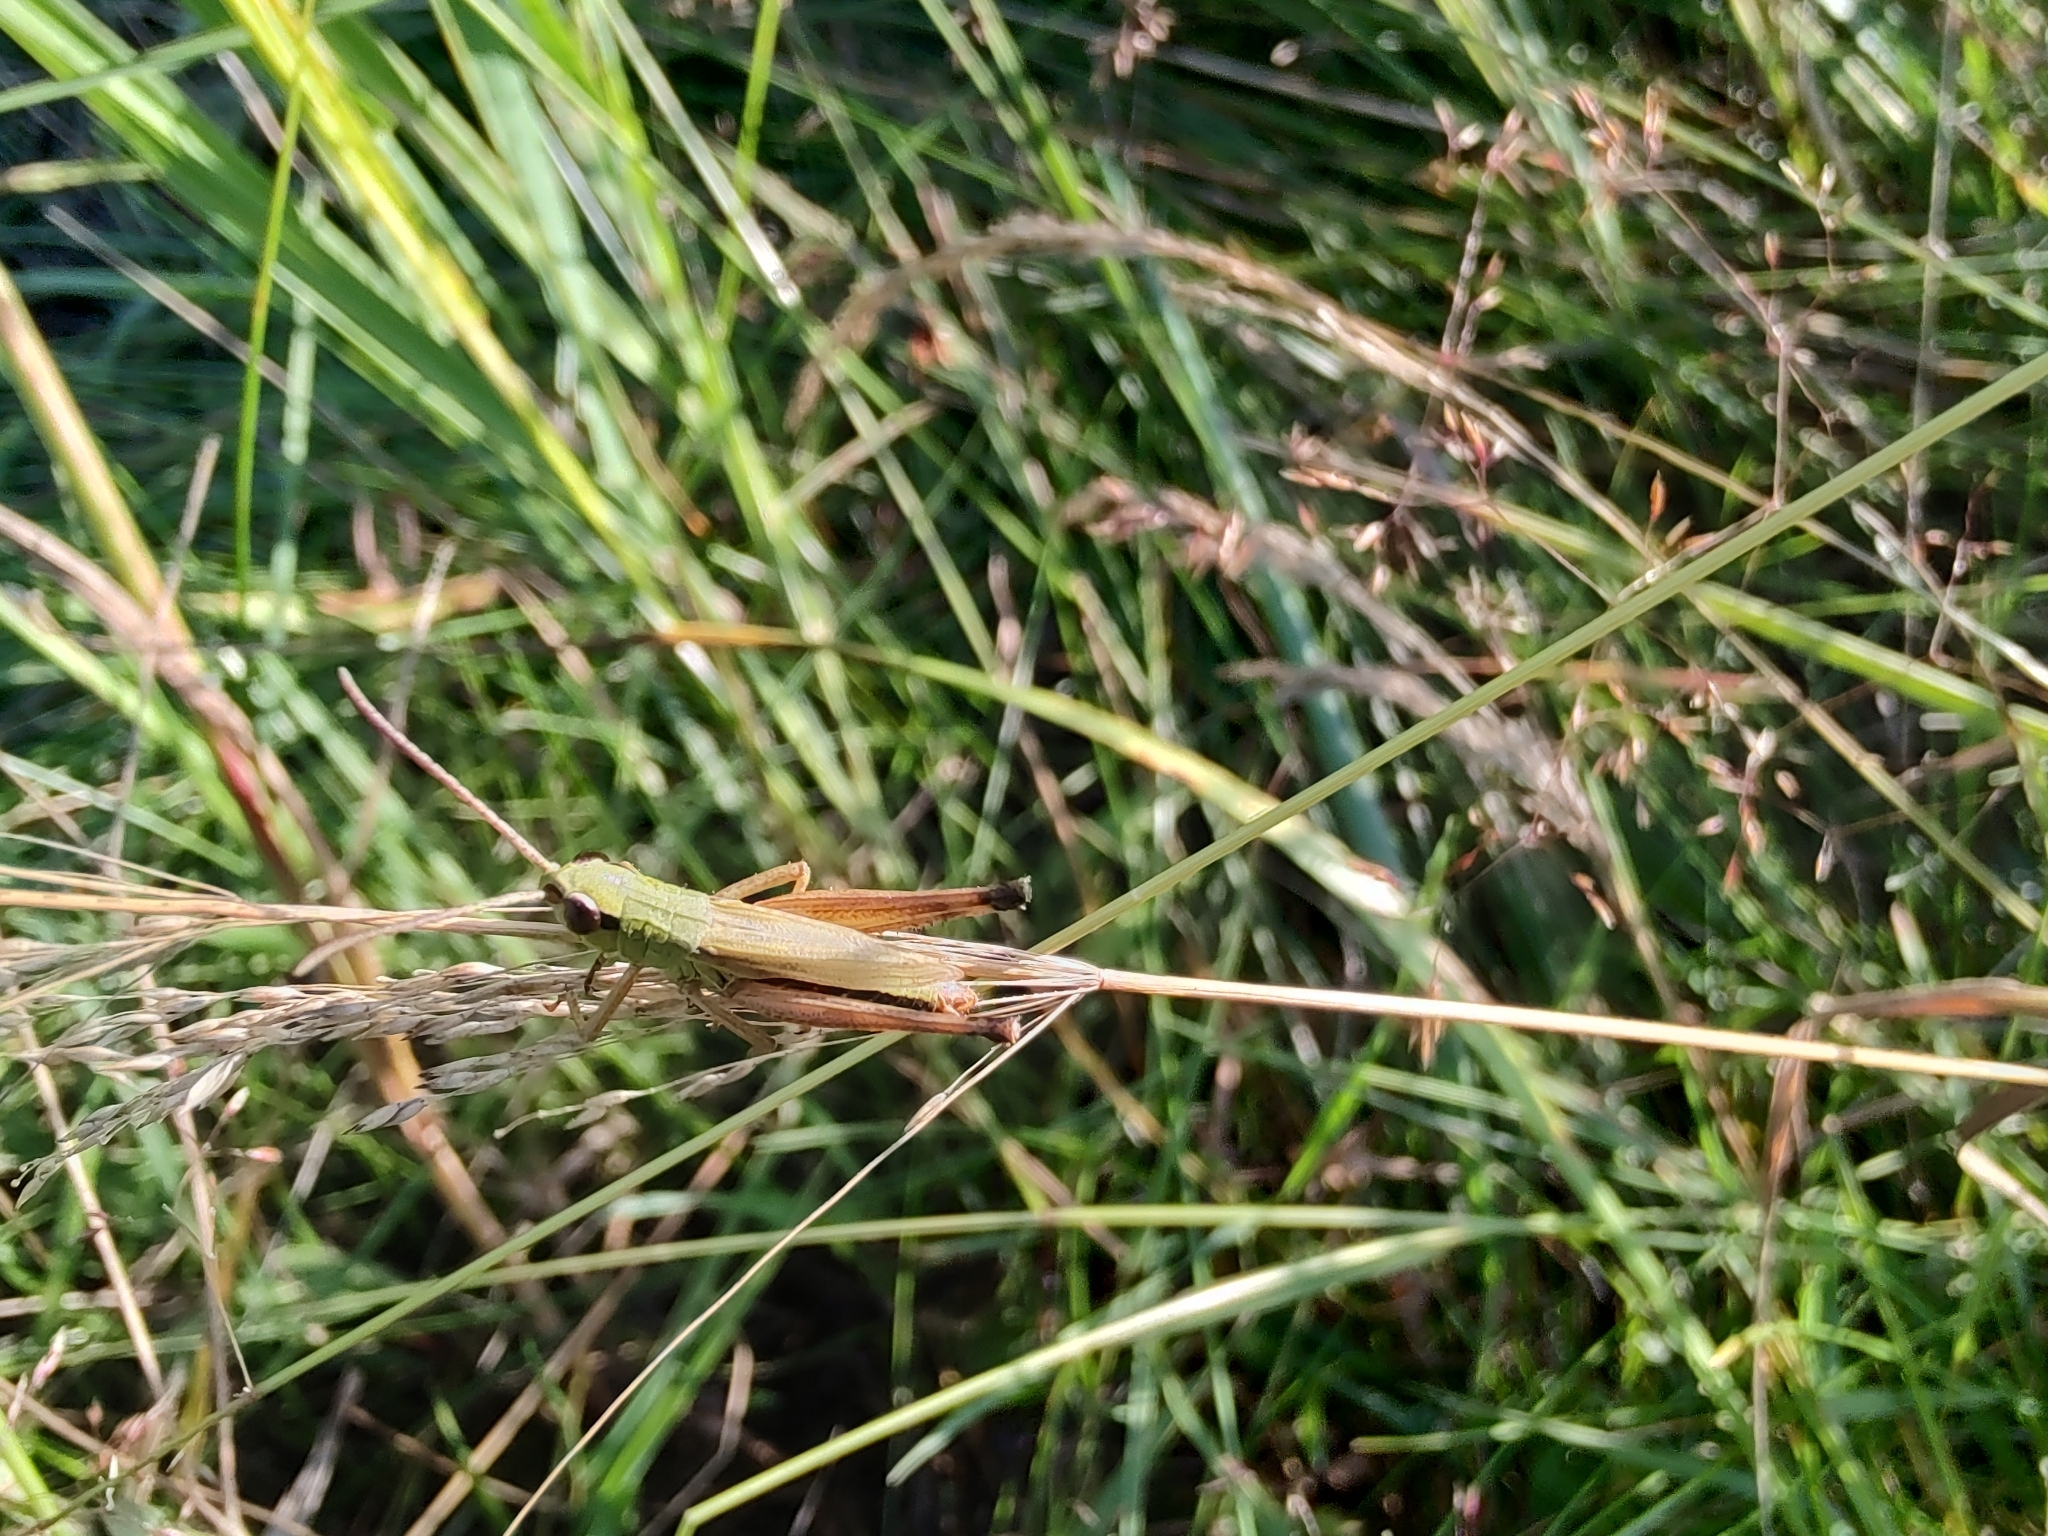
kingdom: Animalia
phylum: Arthropoda
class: Insecta
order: Orthoptera
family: Acrididae
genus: Pseudochorthippus
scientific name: Pseudochorthippus parallelus
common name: Meadow grasshopper
